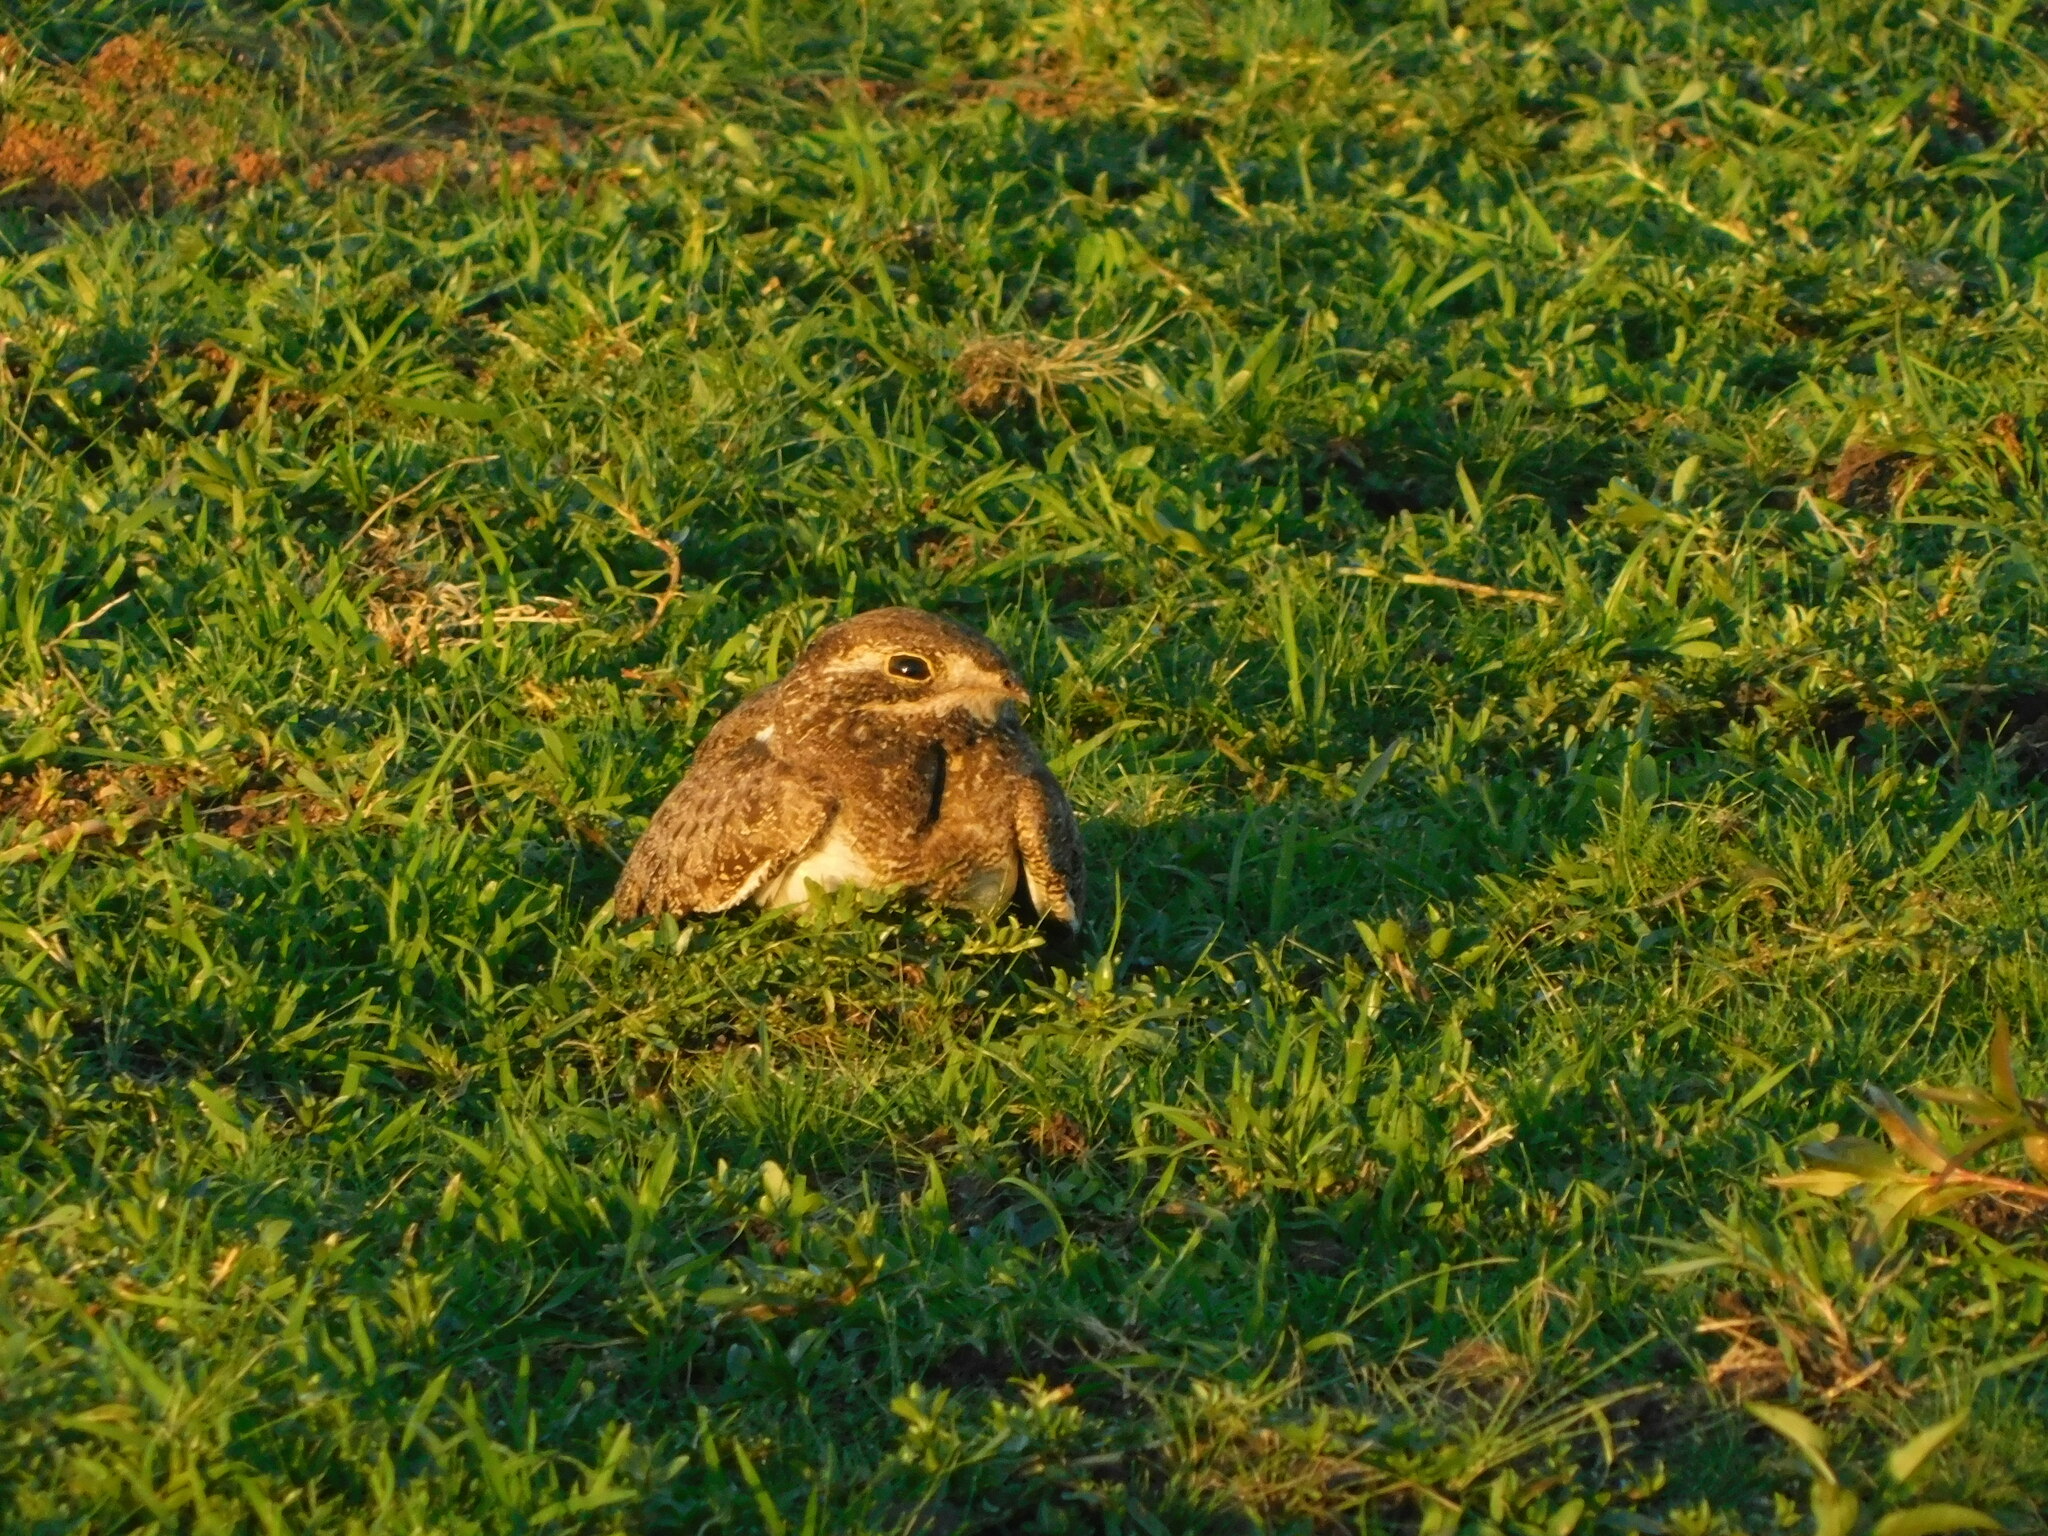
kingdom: Animalia
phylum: Chordata
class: Aves
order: Caprimulgiformes
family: Caprimulgidae
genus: Chordeiles
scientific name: Chordeiles nacunda
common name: Nacunda nighthawk
